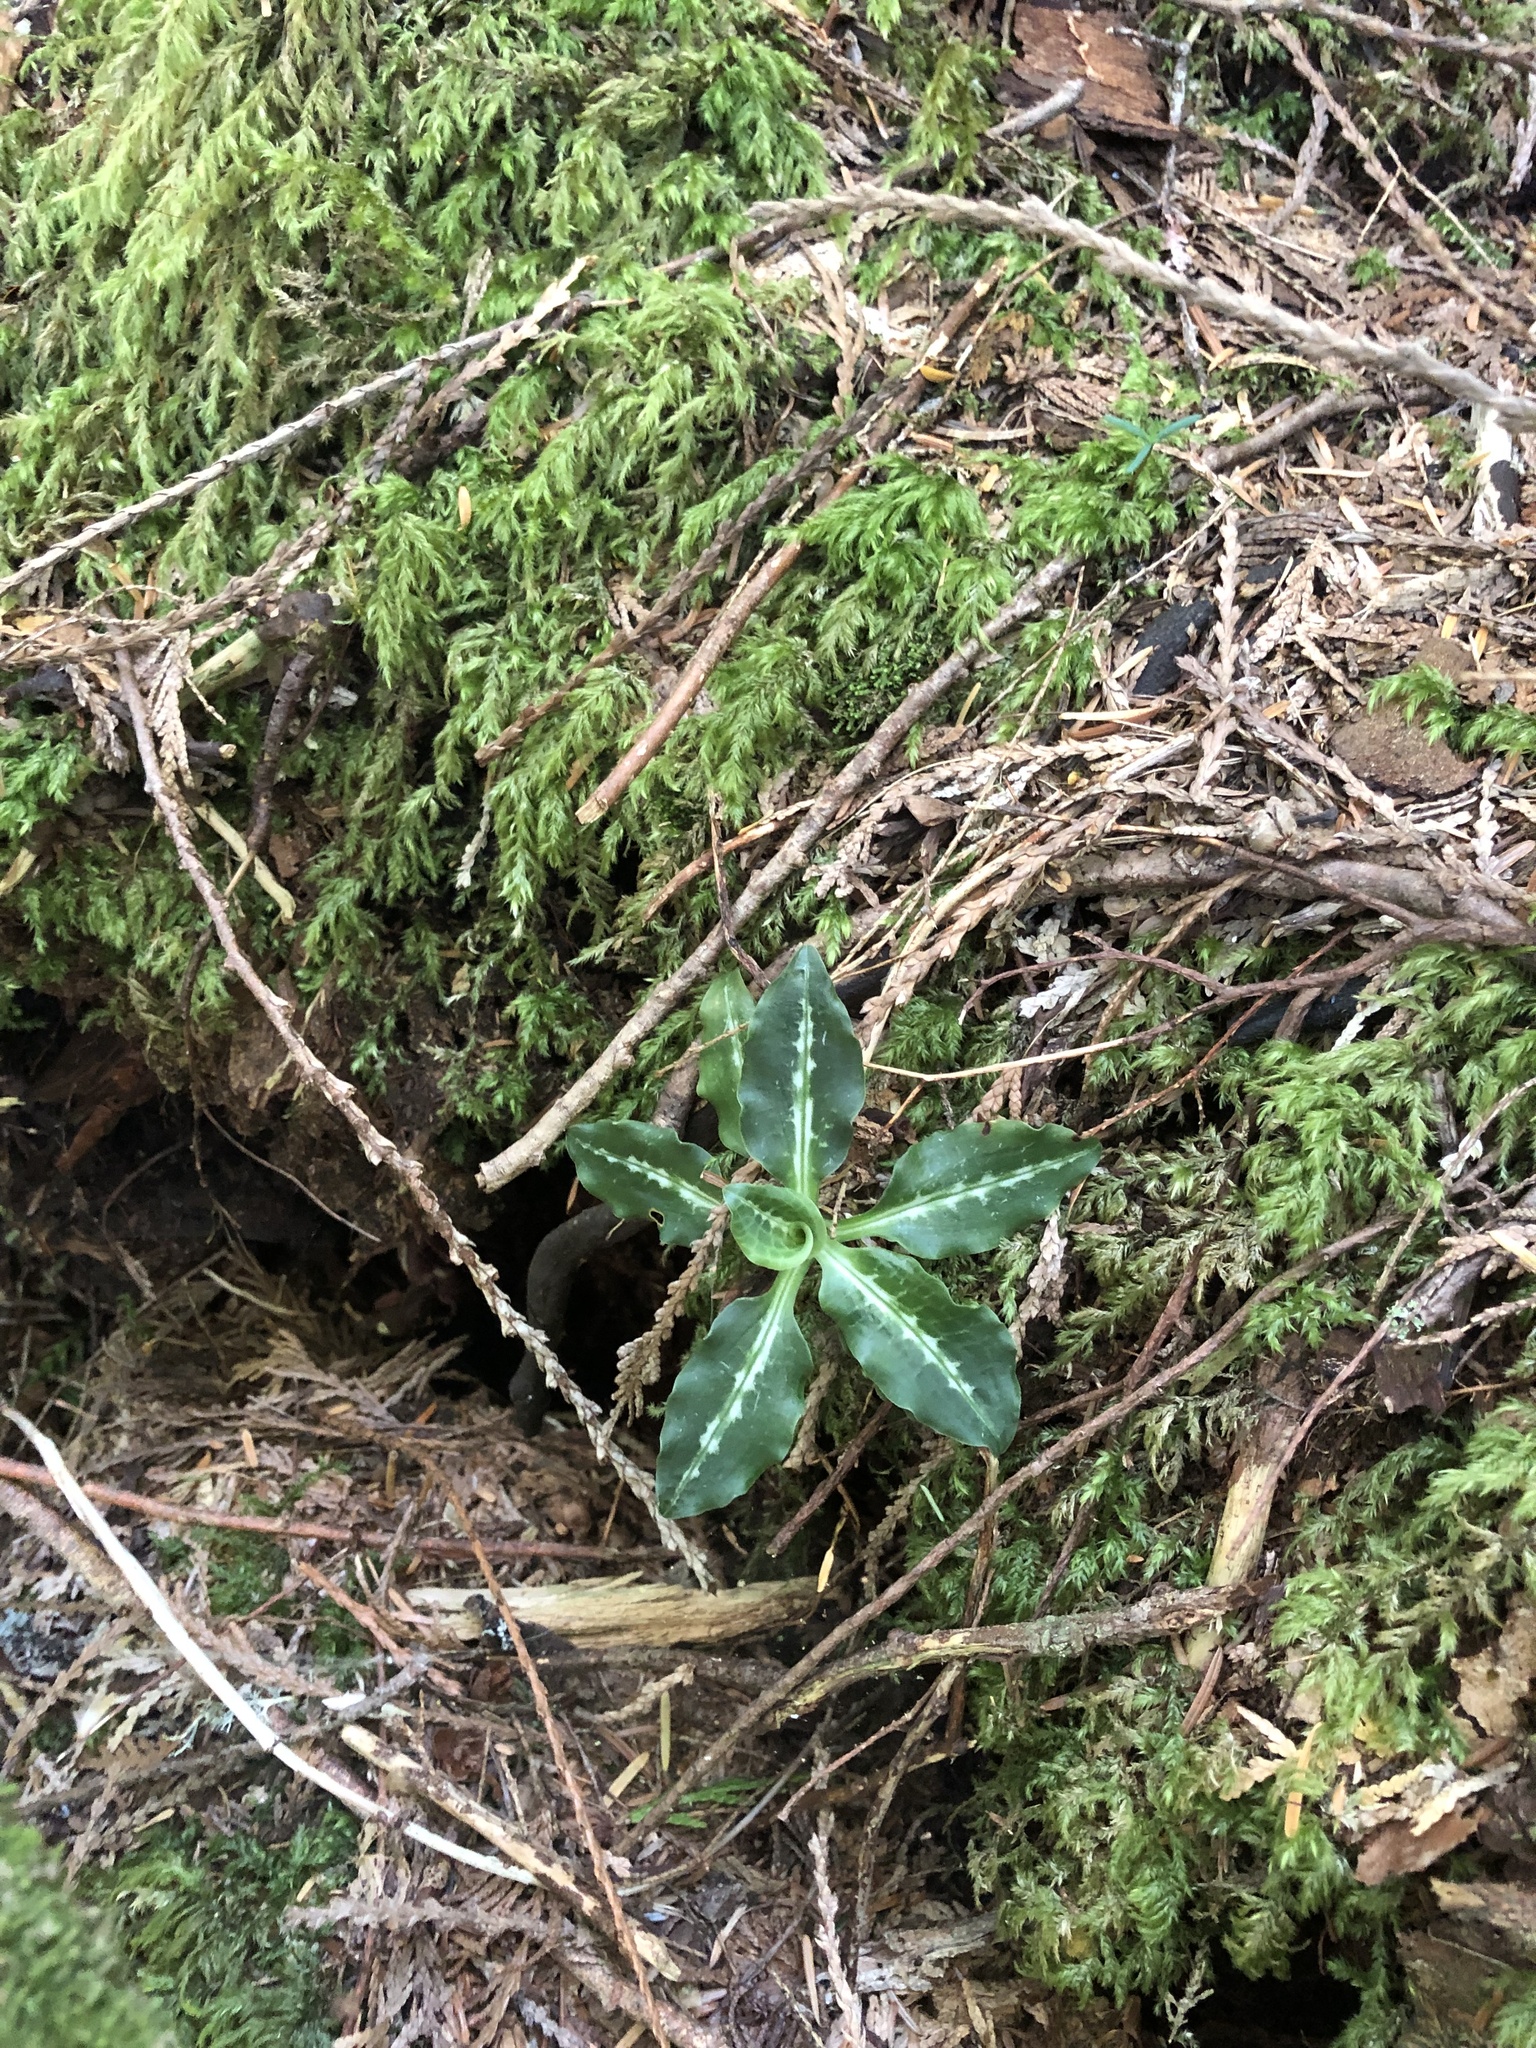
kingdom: Plantae
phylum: Tracheophyta
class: Liliopsida
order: Asparagales
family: Orchidaceae
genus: Goodyera
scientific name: Goodyera oblongifolia
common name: Giant rattlesnake-plantain
